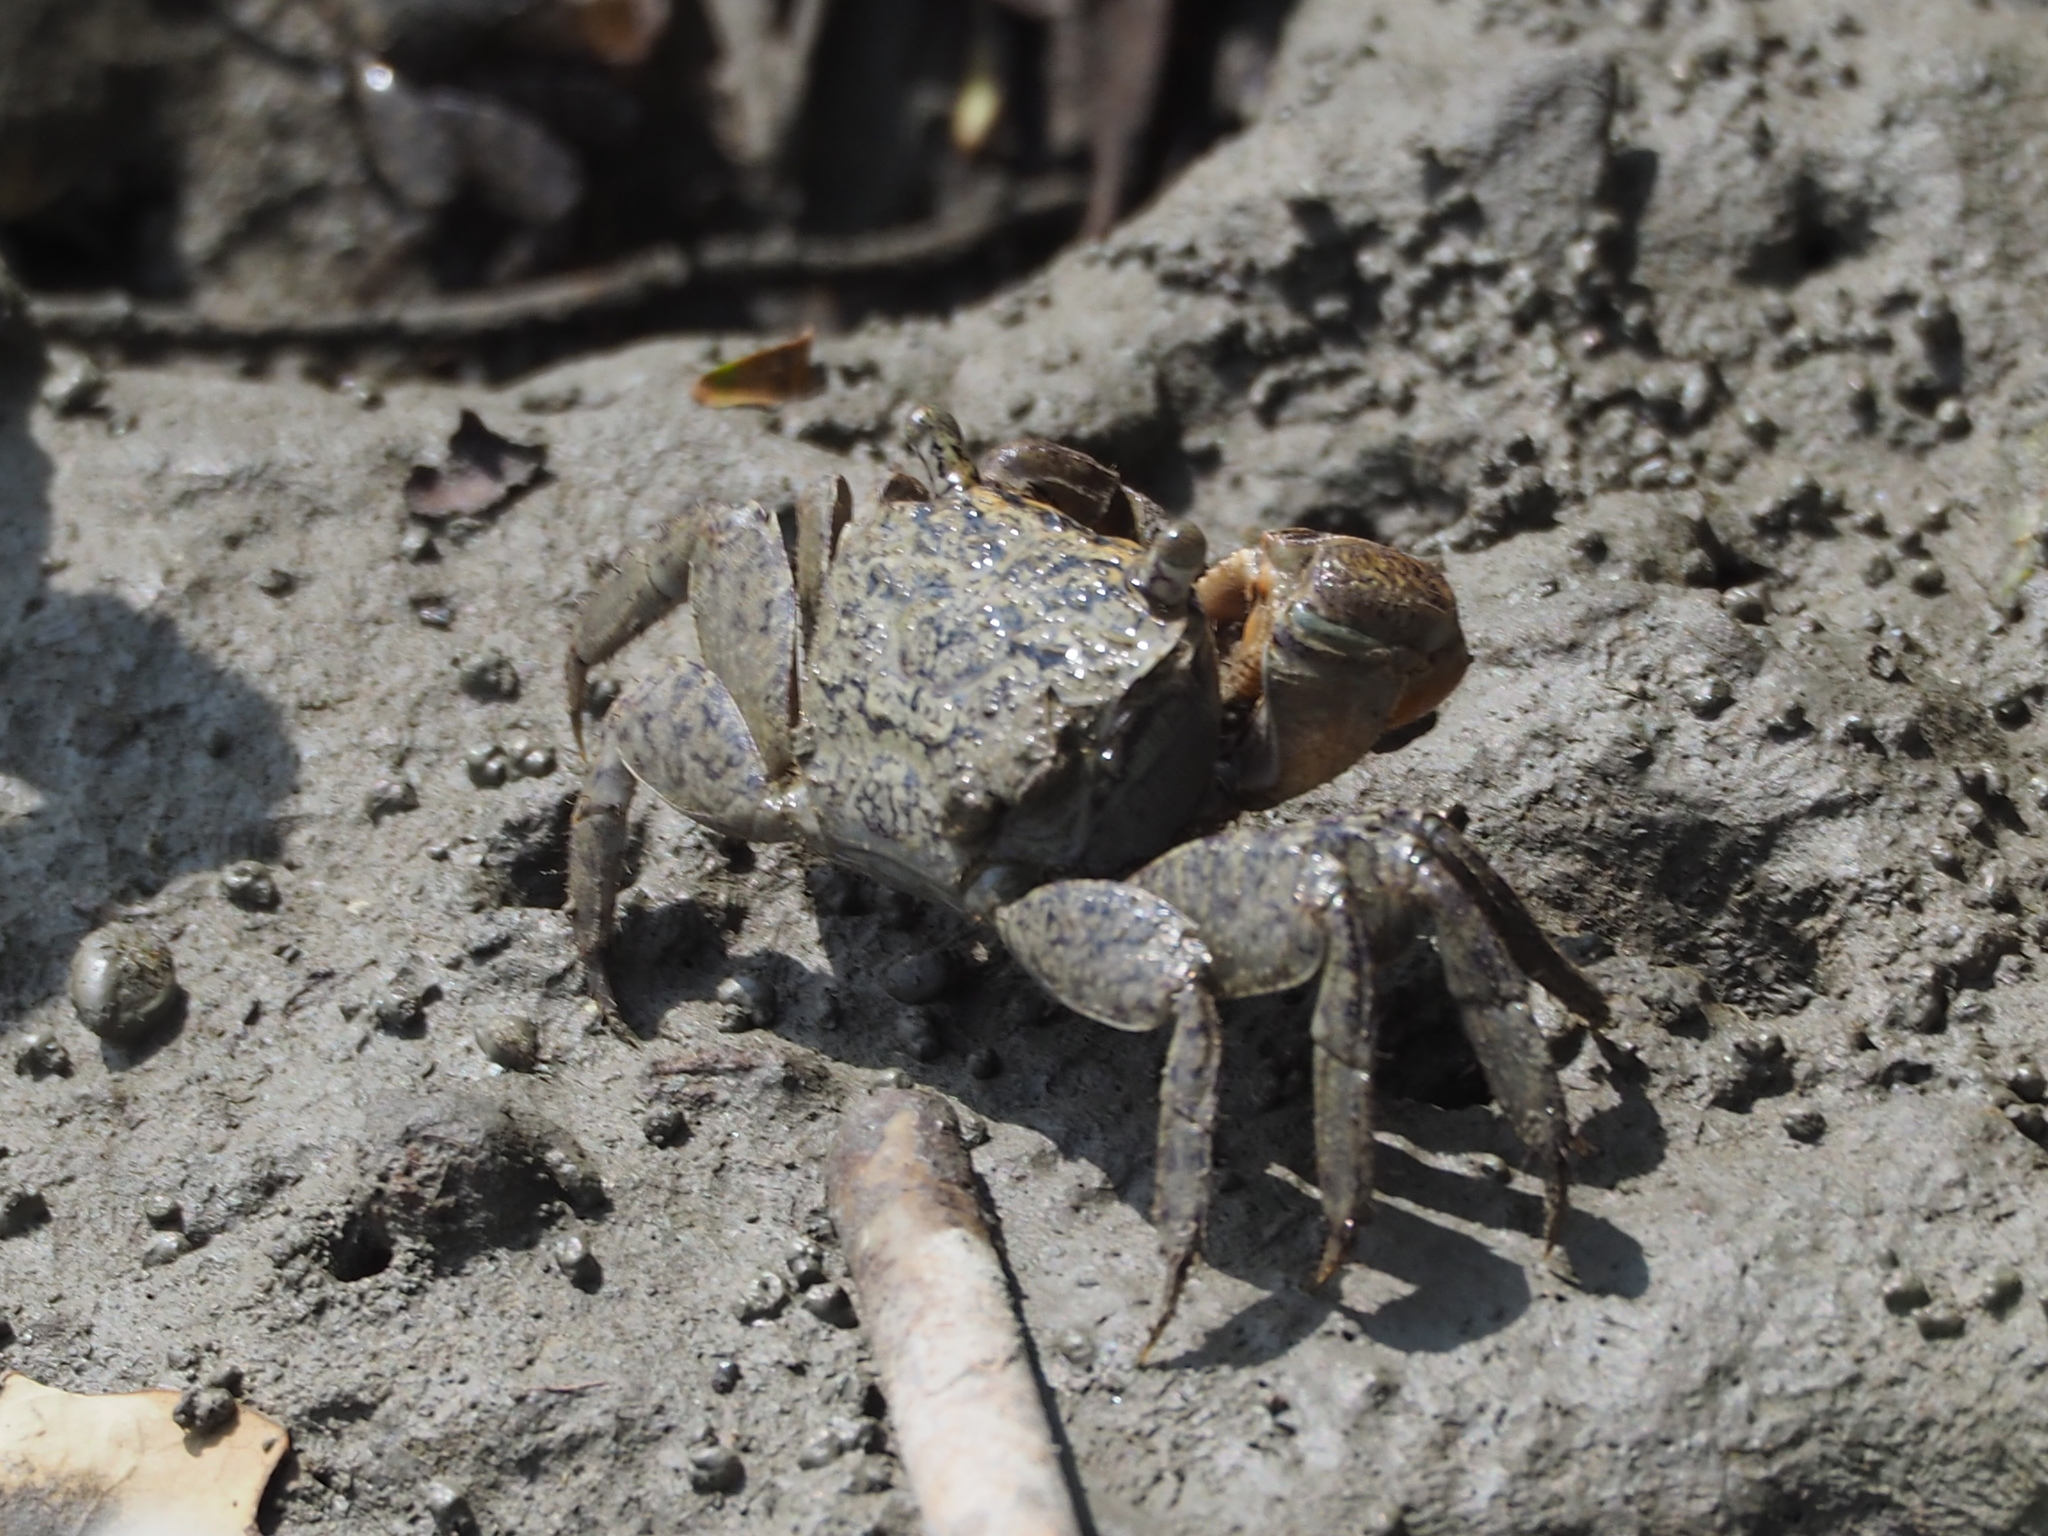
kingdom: Animalia
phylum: Arthropoda
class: Malacostraca
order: Decapoda
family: Sesarmidae
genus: Parasesarma
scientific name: Parasesarma affine
